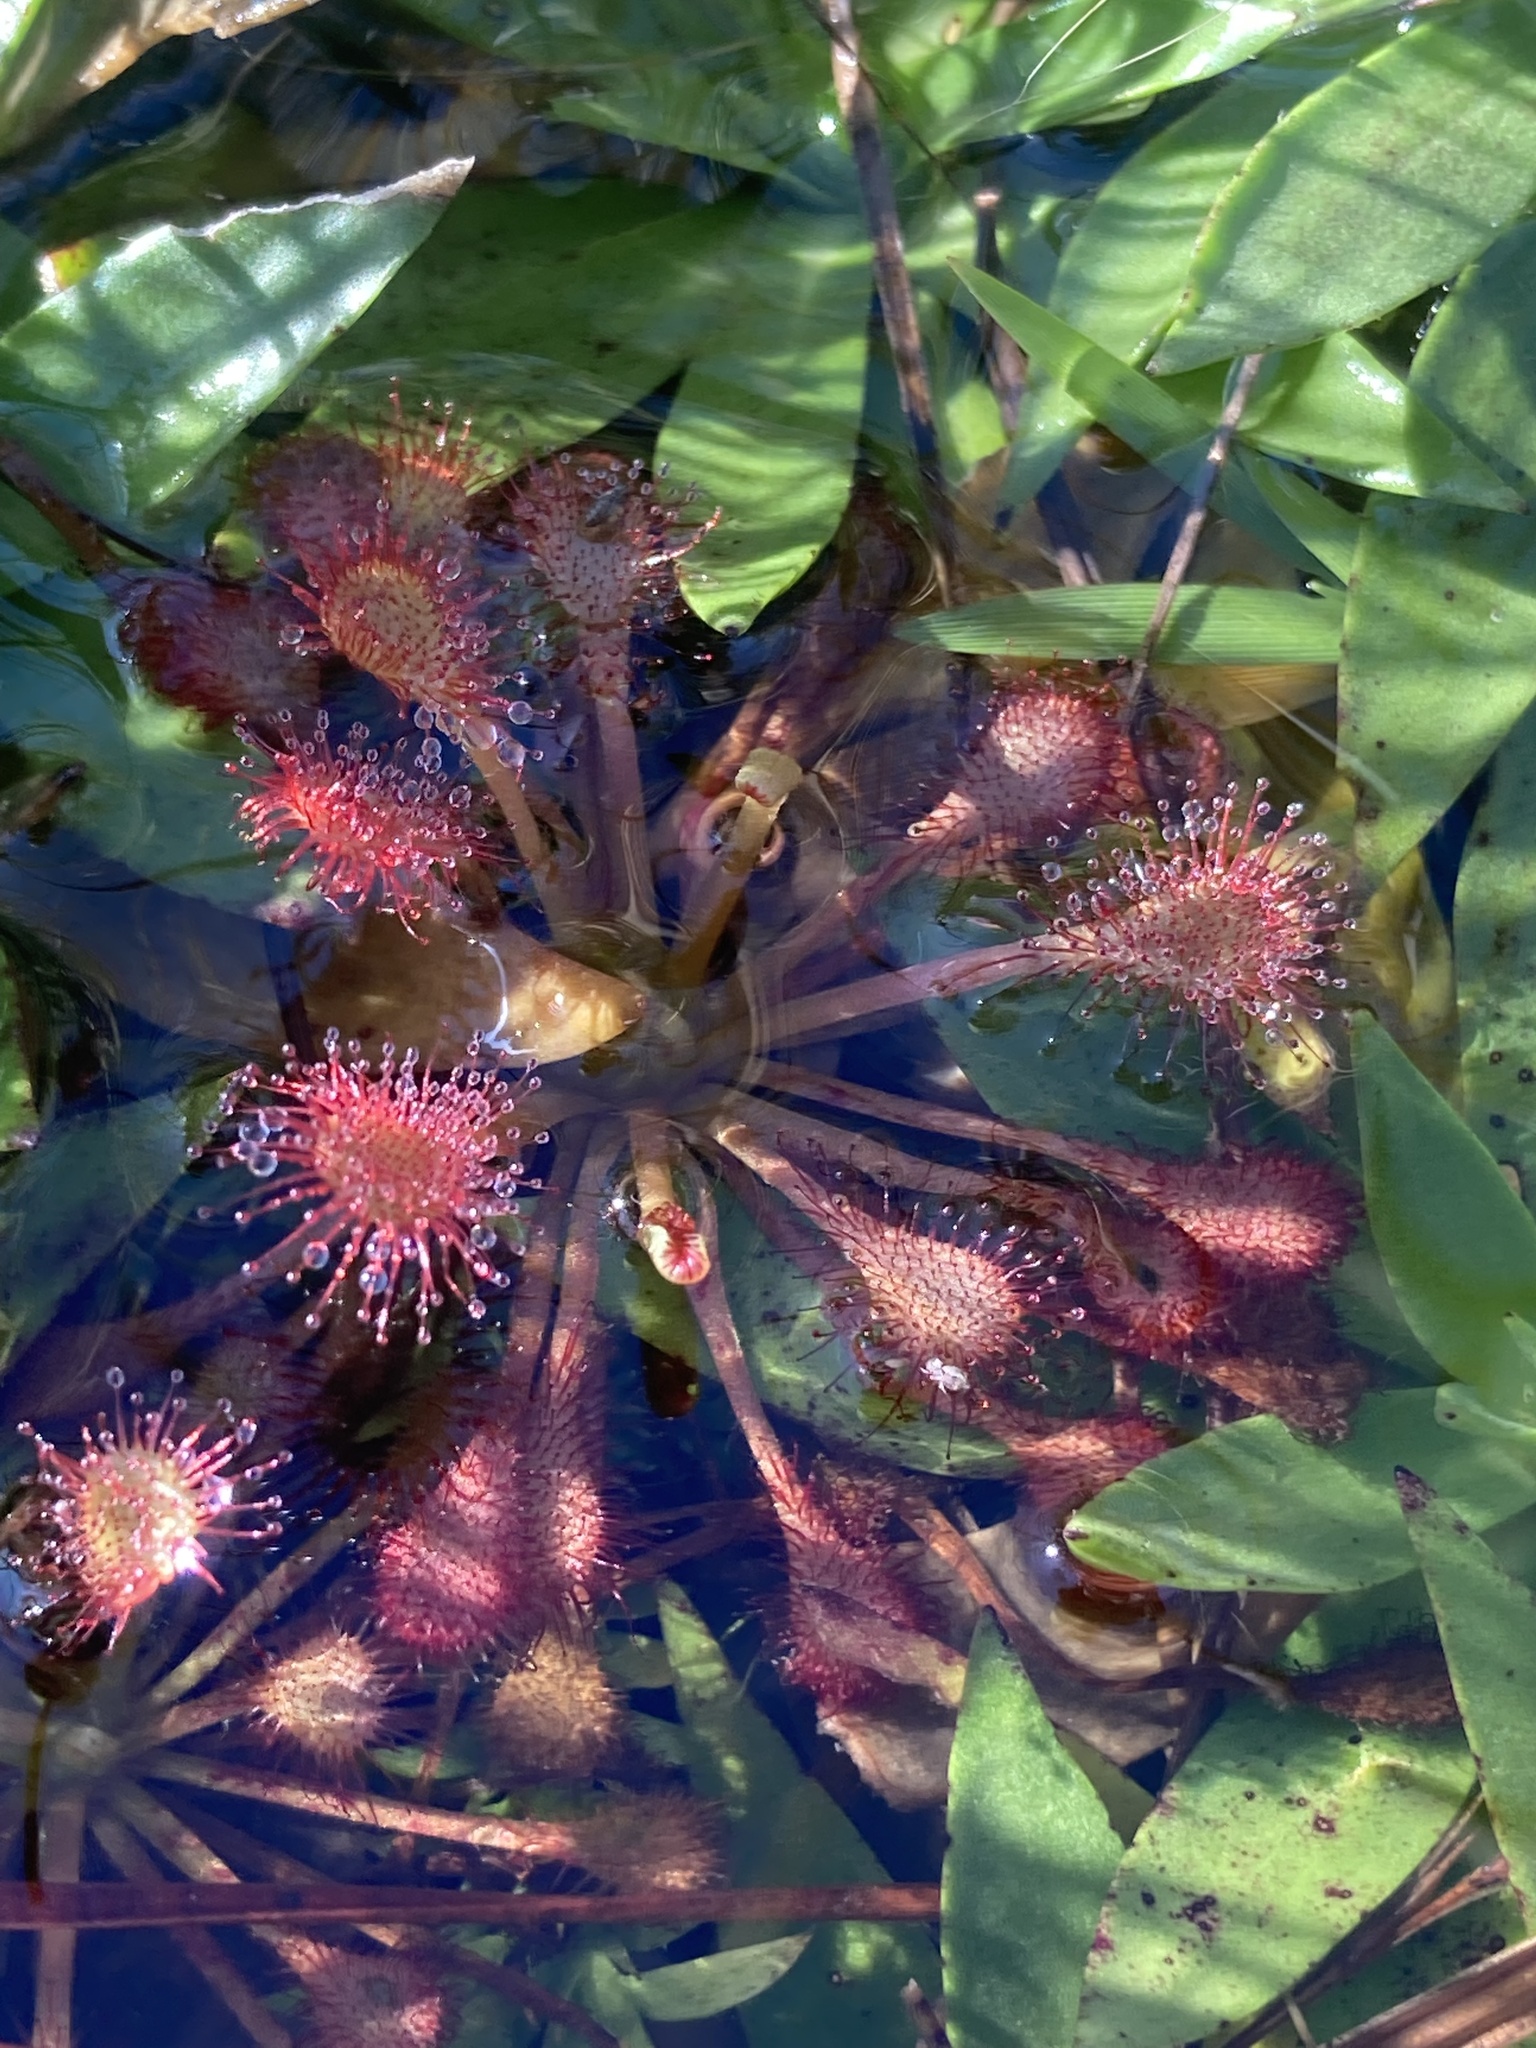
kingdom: Plantae
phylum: Tracheophyta
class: Magnoliopsida
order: Caryophyllales
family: Droseraceae
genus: Drosera
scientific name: Drosera capillaris
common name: Pink sundew
